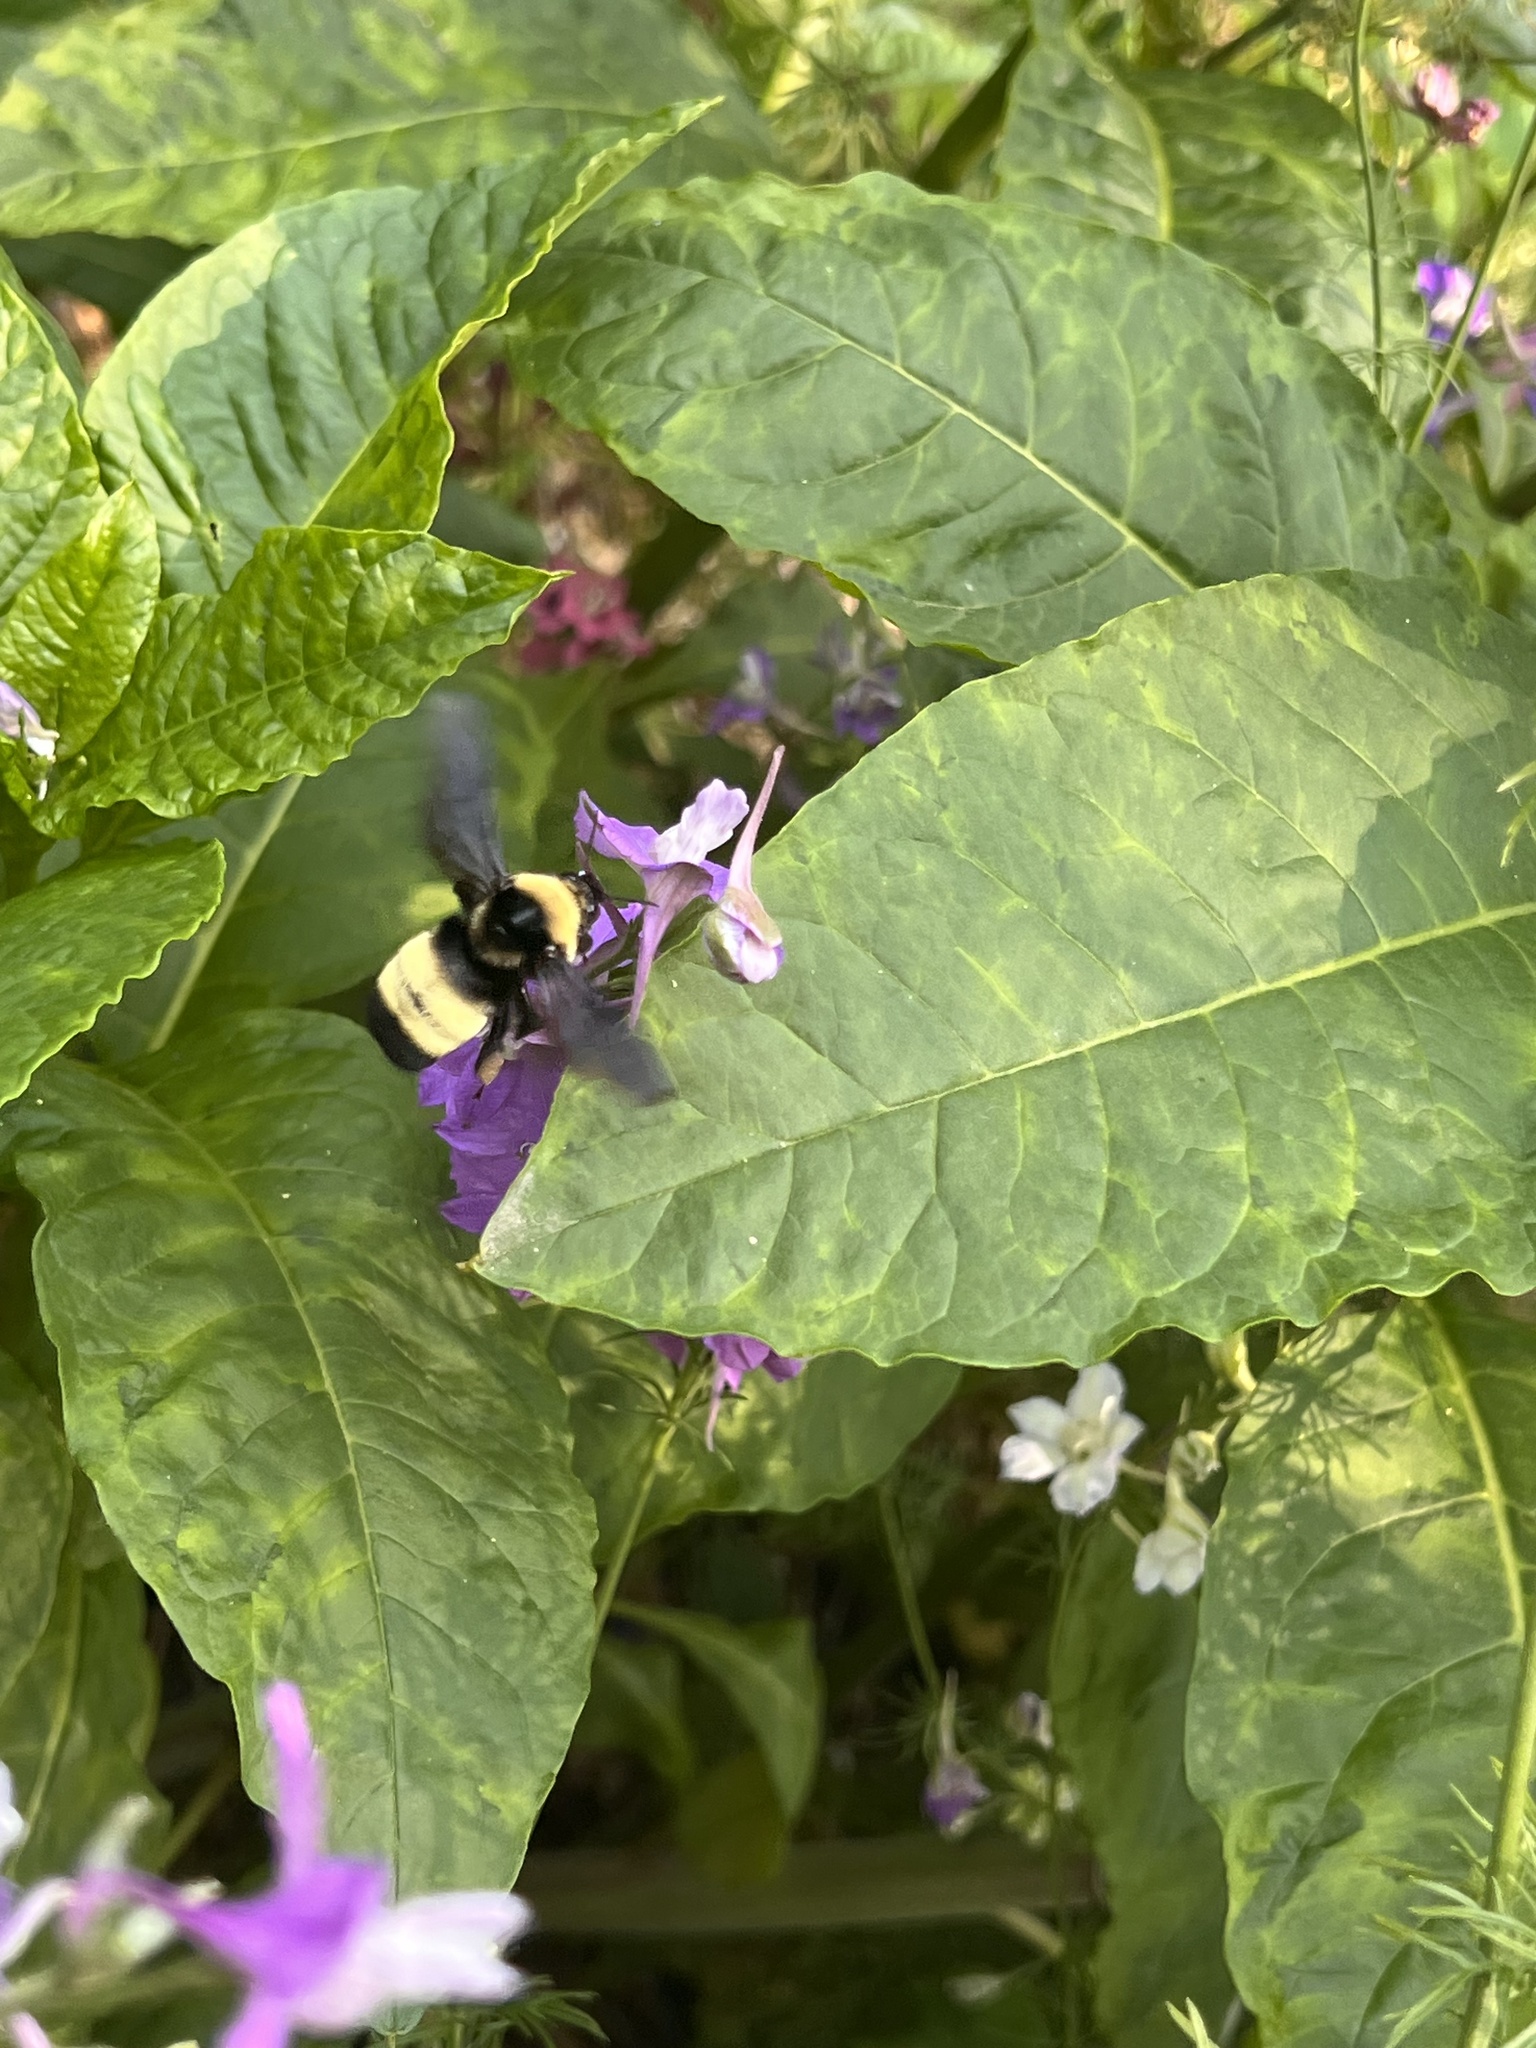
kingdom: Animalia
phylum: Arthropoda
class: Insecta
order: Hymenoptera
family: Apidae
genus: Bombus
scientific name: Bombus auricomus
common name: Black and gold bumble bee
